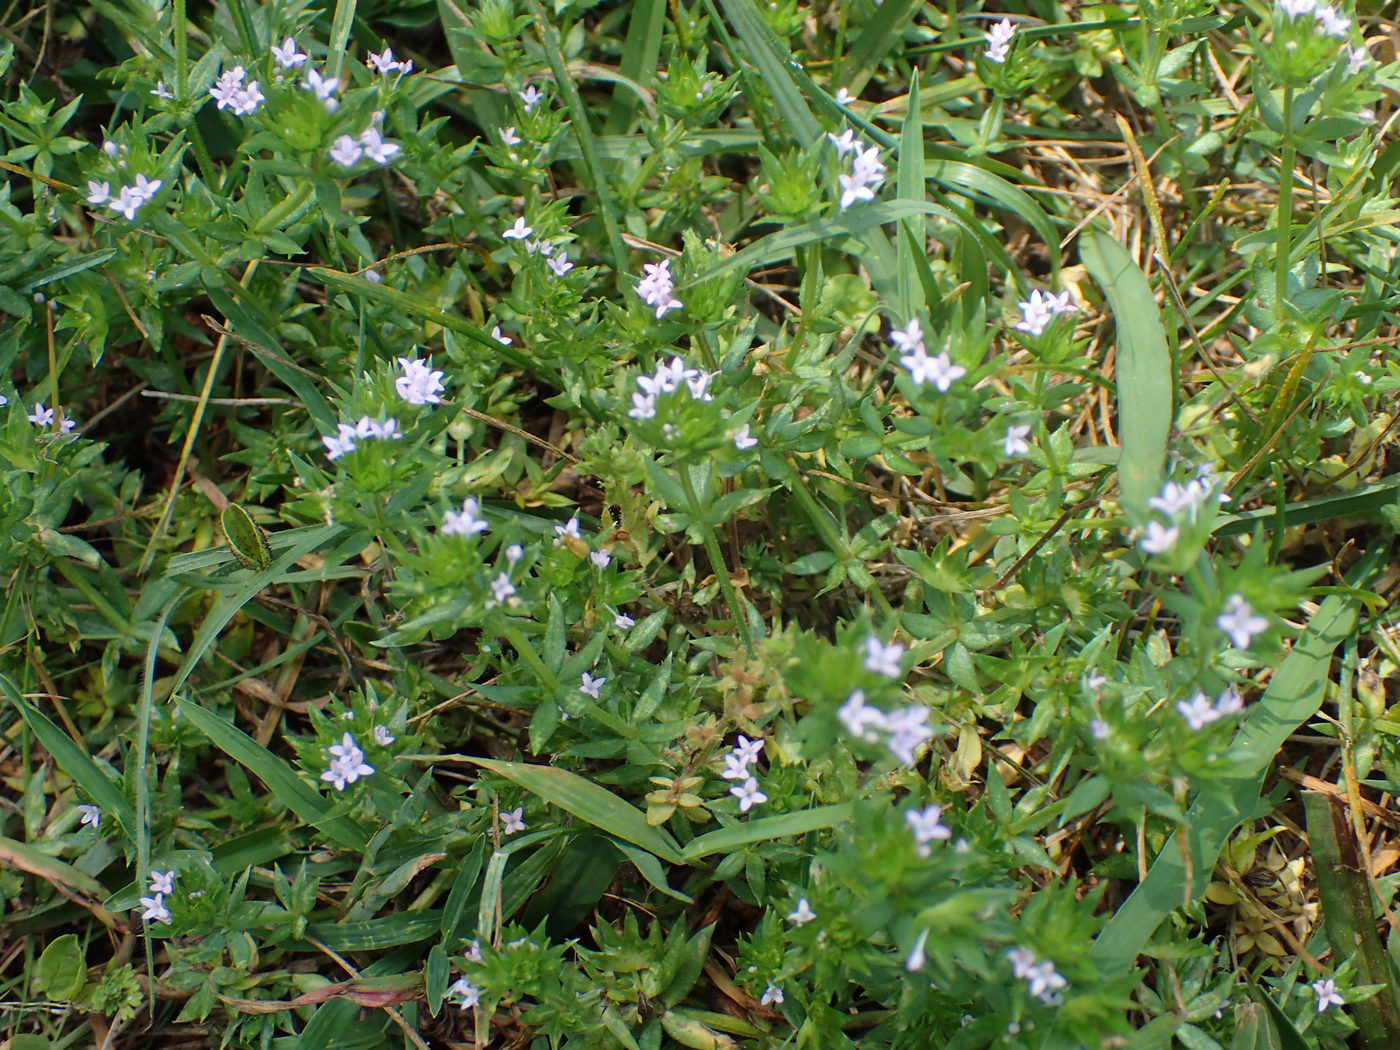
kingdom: Plantae
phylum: Tracheophyta
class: Magnoliopsida
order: Gentianales
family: Rubiaceae
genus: Sherardia
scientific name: Sherardia arvensis
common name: Field madder
